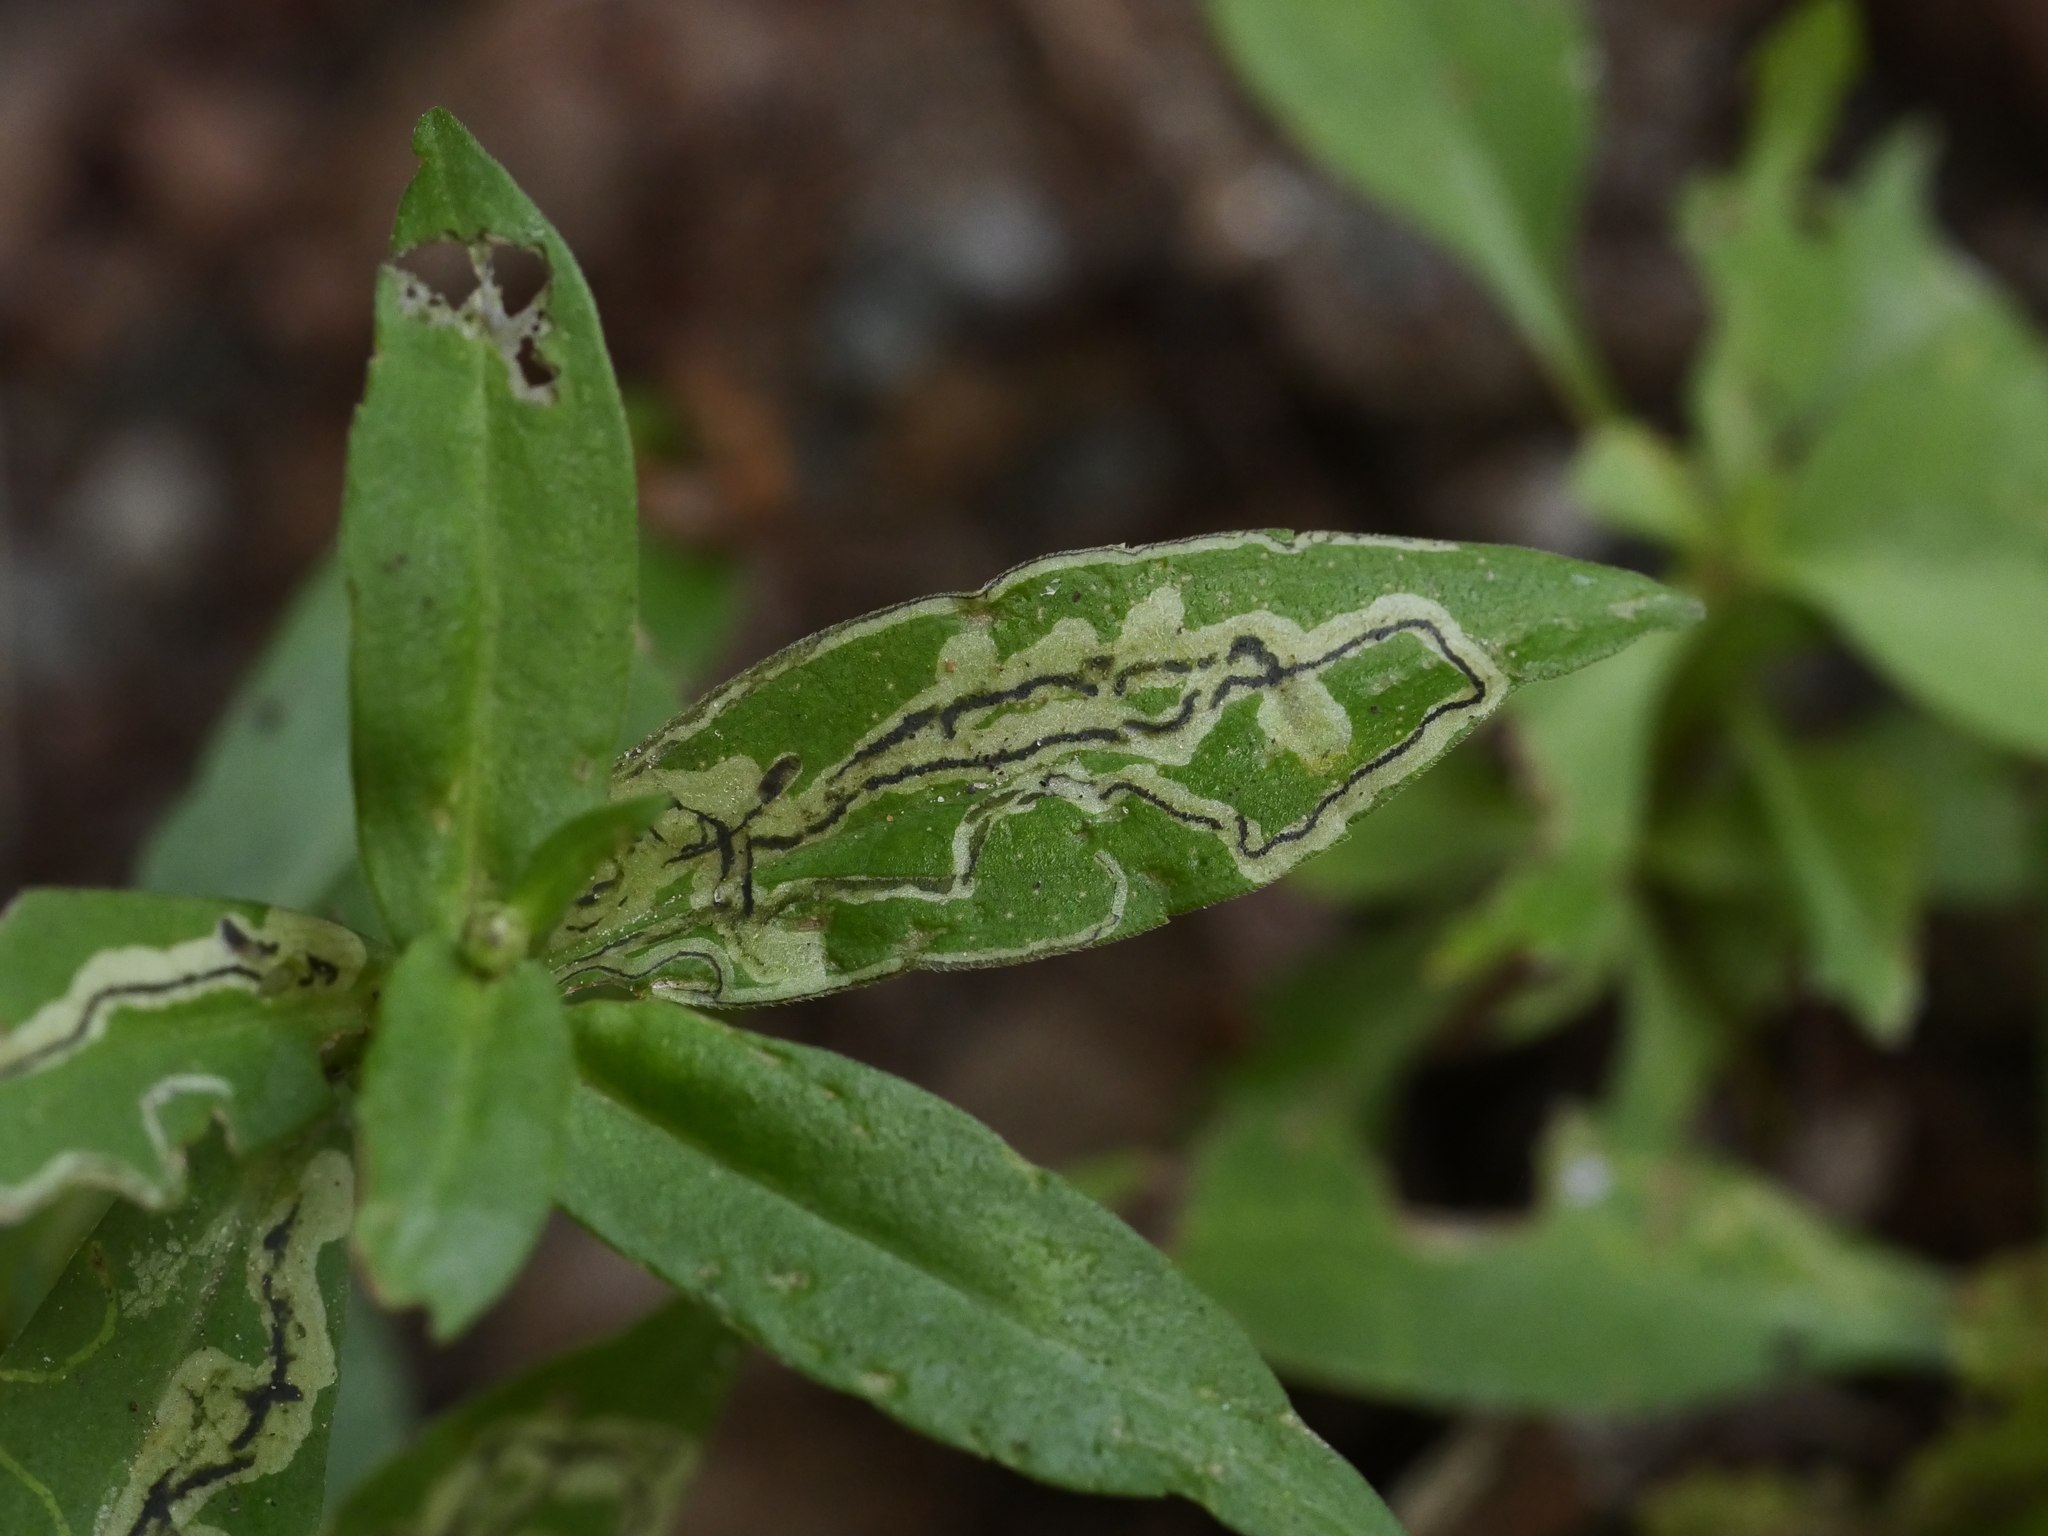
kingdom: Animalia
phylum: Arthropoda
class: Insecta
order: Diptera
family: Agromyzidae
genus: Liriomyza
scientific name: Liriomyza eupatorii
